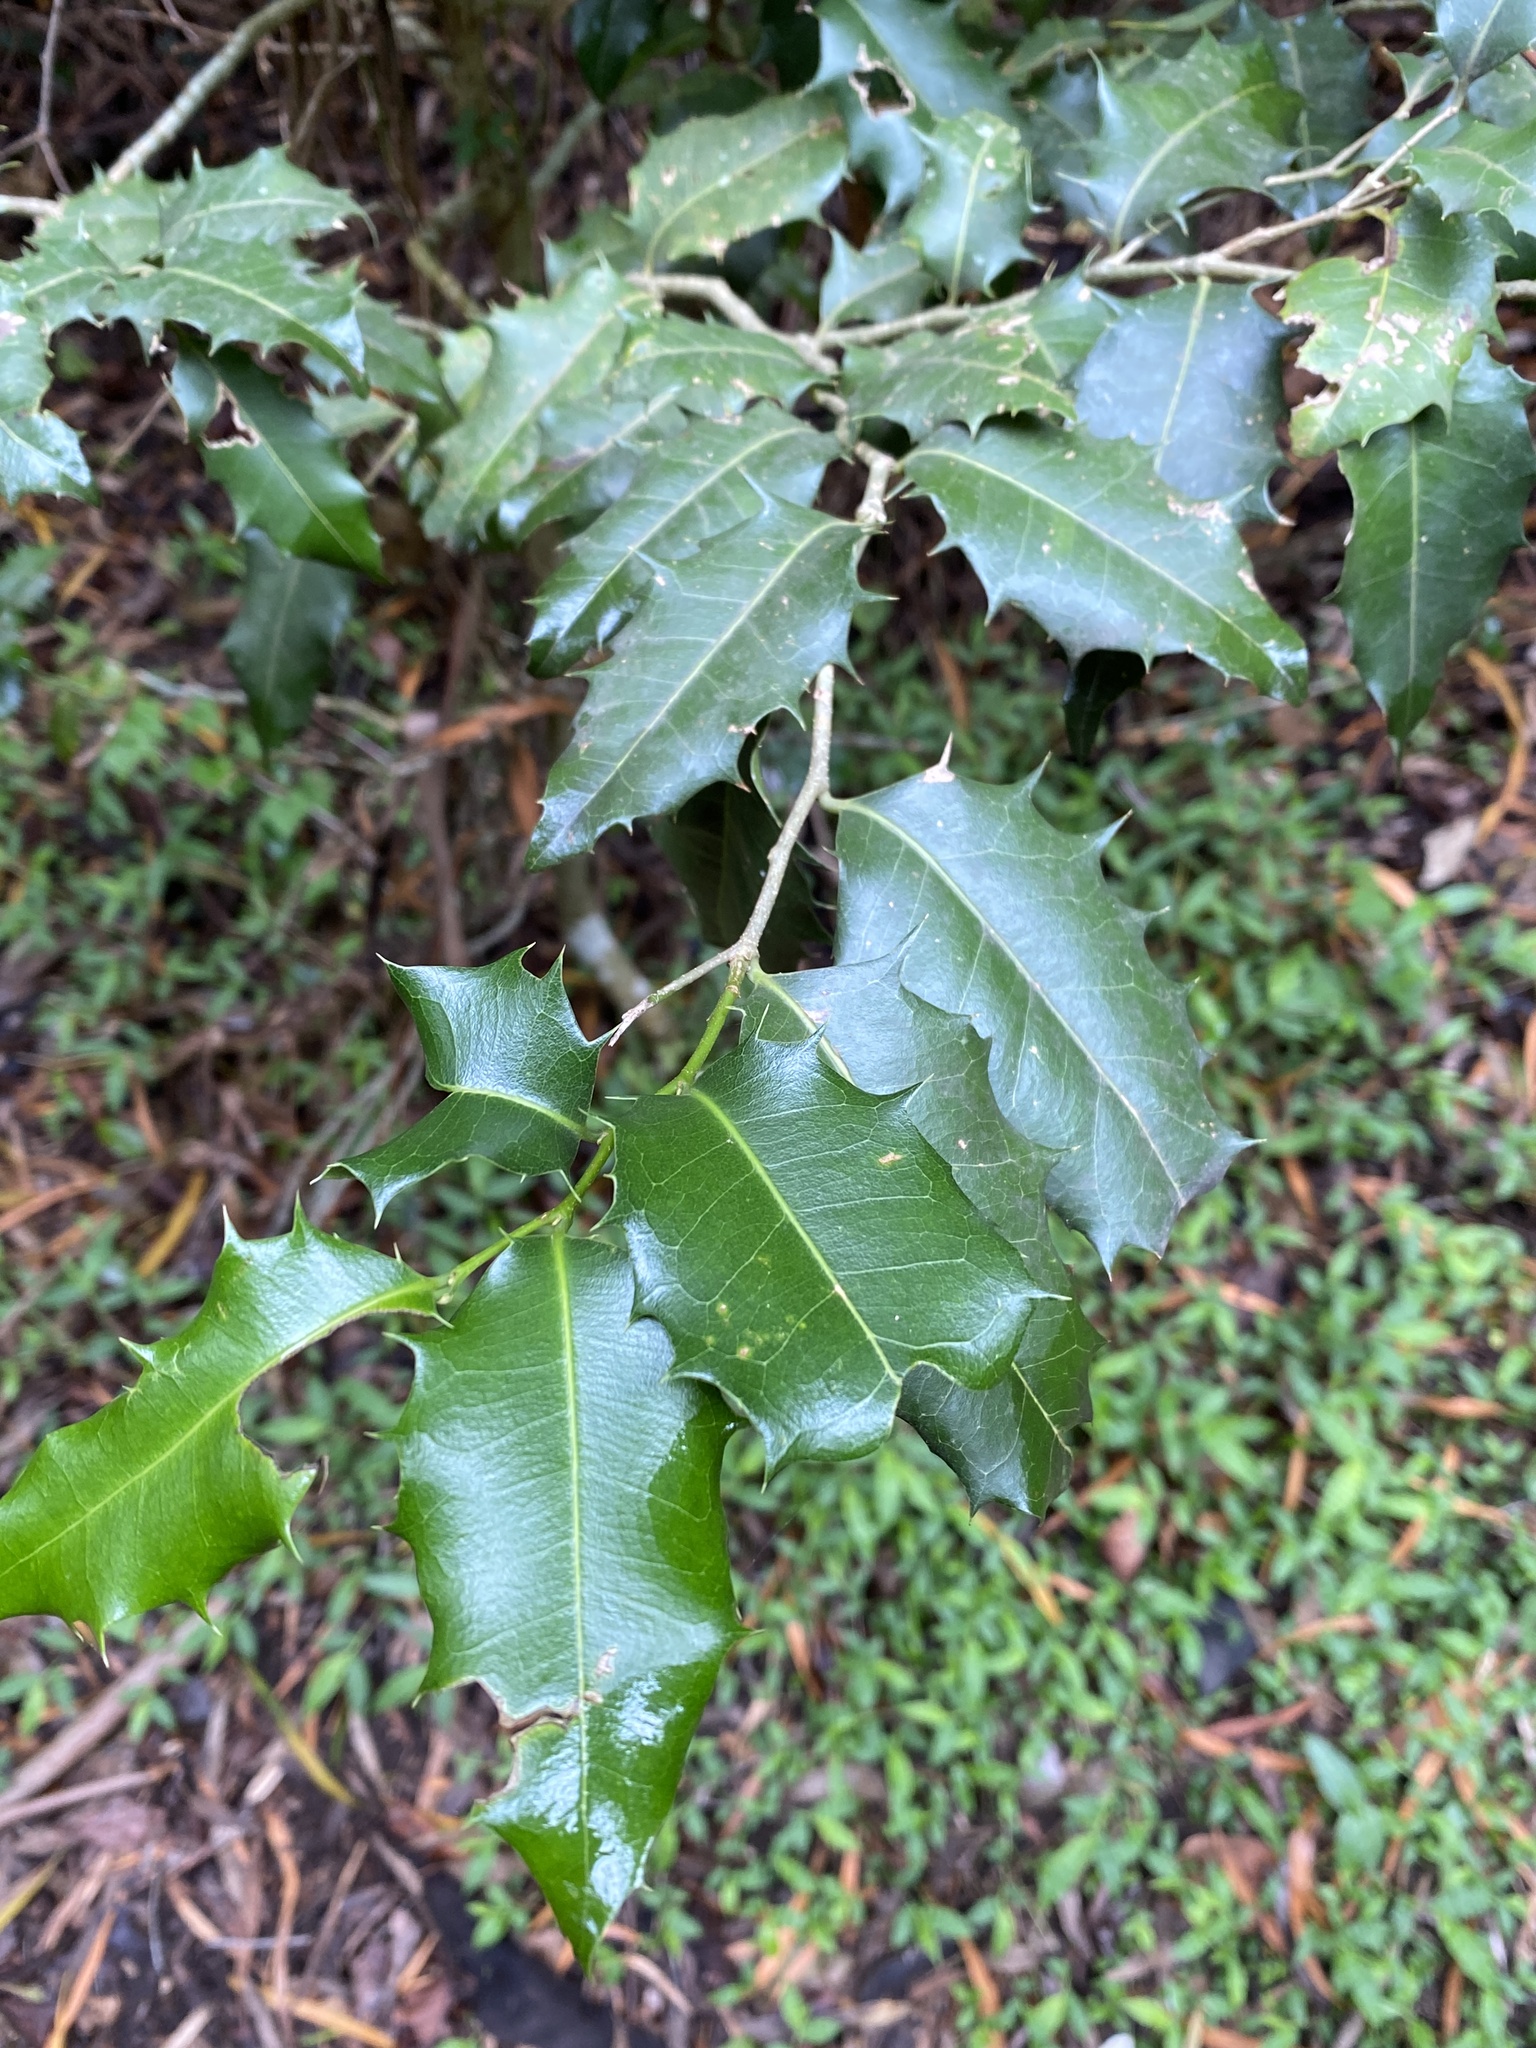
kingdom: Plantae
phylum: Tracheophyta
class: Magnoliopsida
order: Malpighiales
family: Putranjivaceae
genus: Drypetes
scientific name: Drypetes deplanchei
